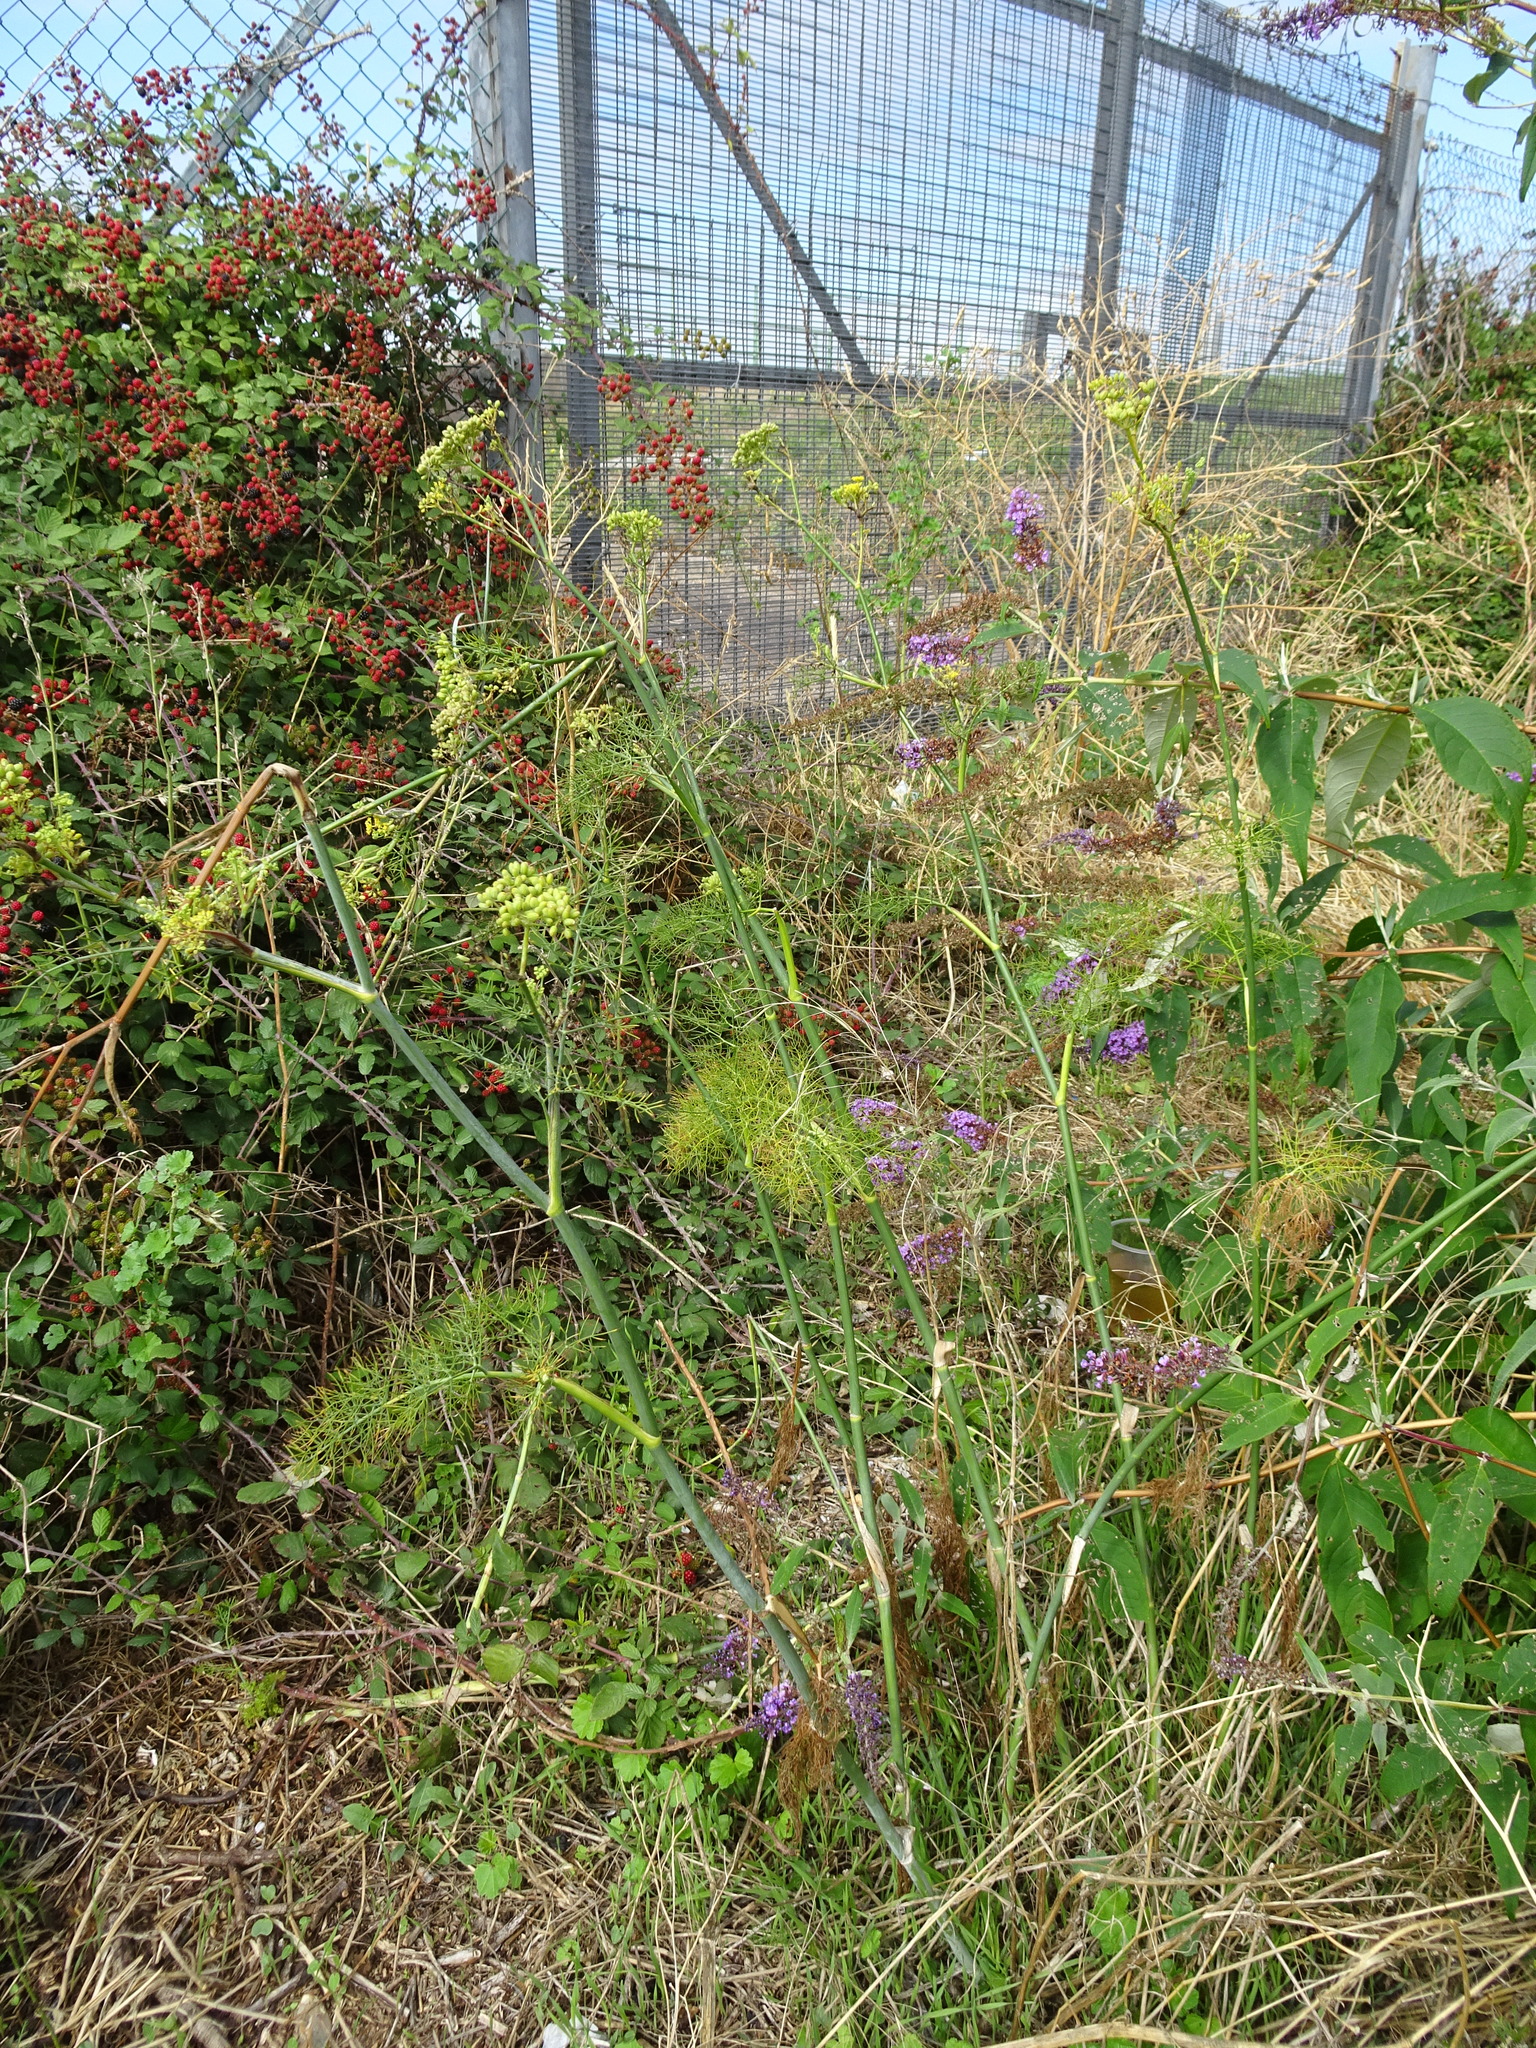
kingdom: Plantae
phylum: Tracheophyta
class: Magnoliopsida
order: Apiales
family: Apiaceae
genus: Foeniculum
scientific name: Foeniculum vulgare
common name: Fennel
